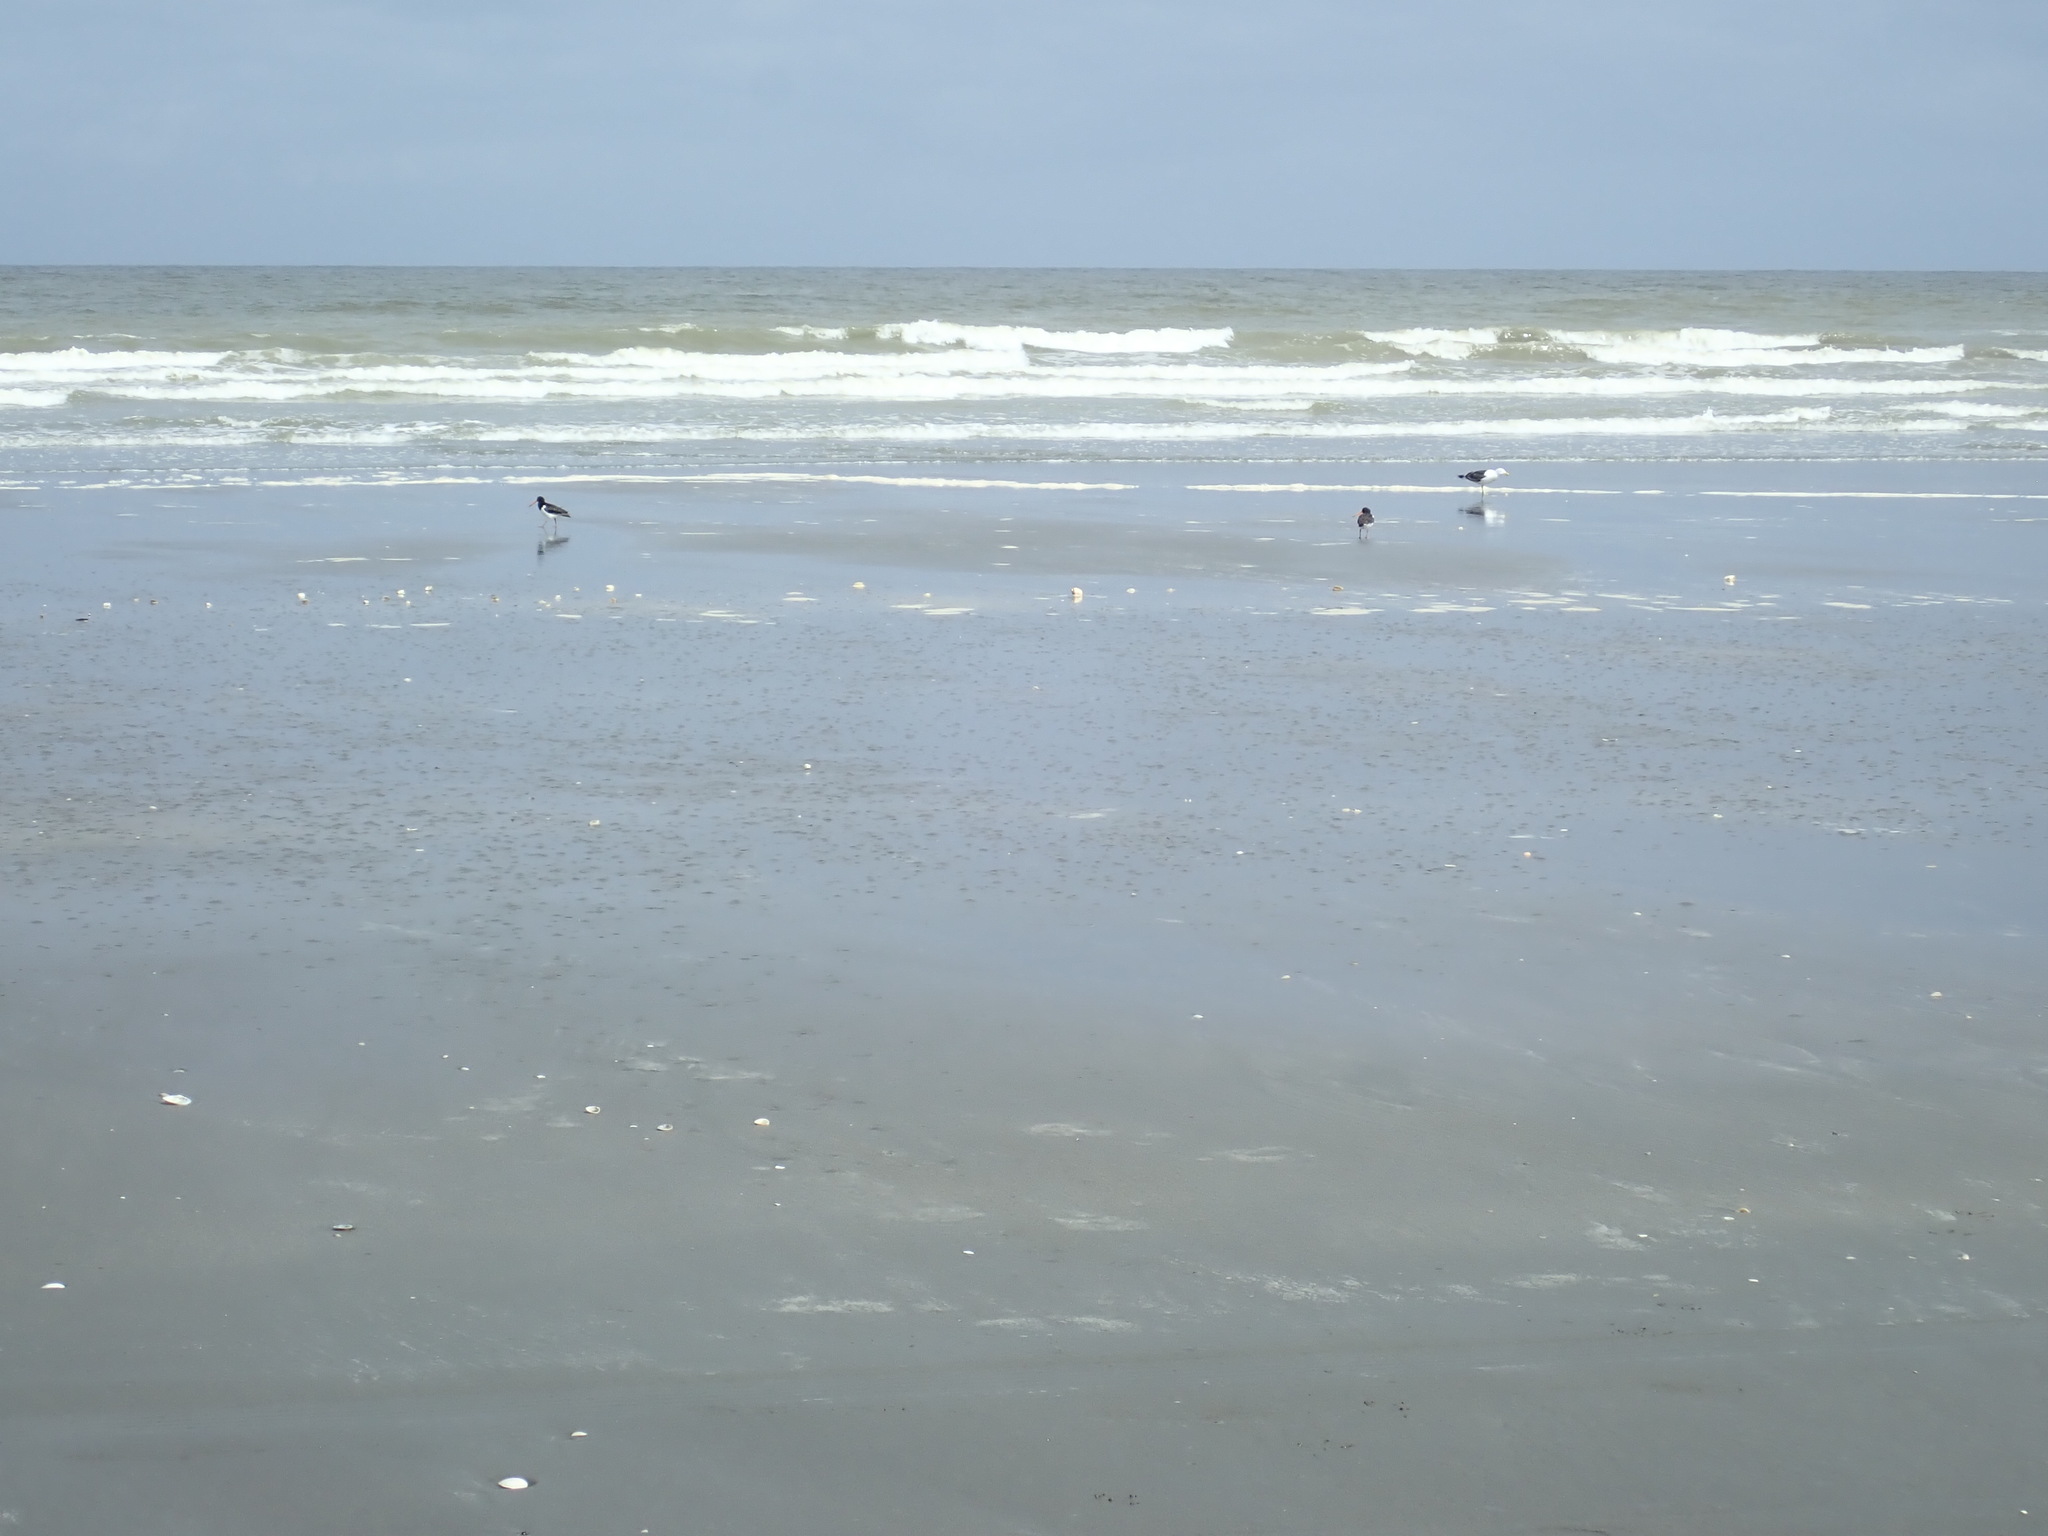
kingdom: Animalia
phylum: Chordata
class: Aves
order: Charadriiformes
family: Haematopodidae
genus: Haematopus
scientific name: Haematopus finschi
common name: South island oystercatcher
